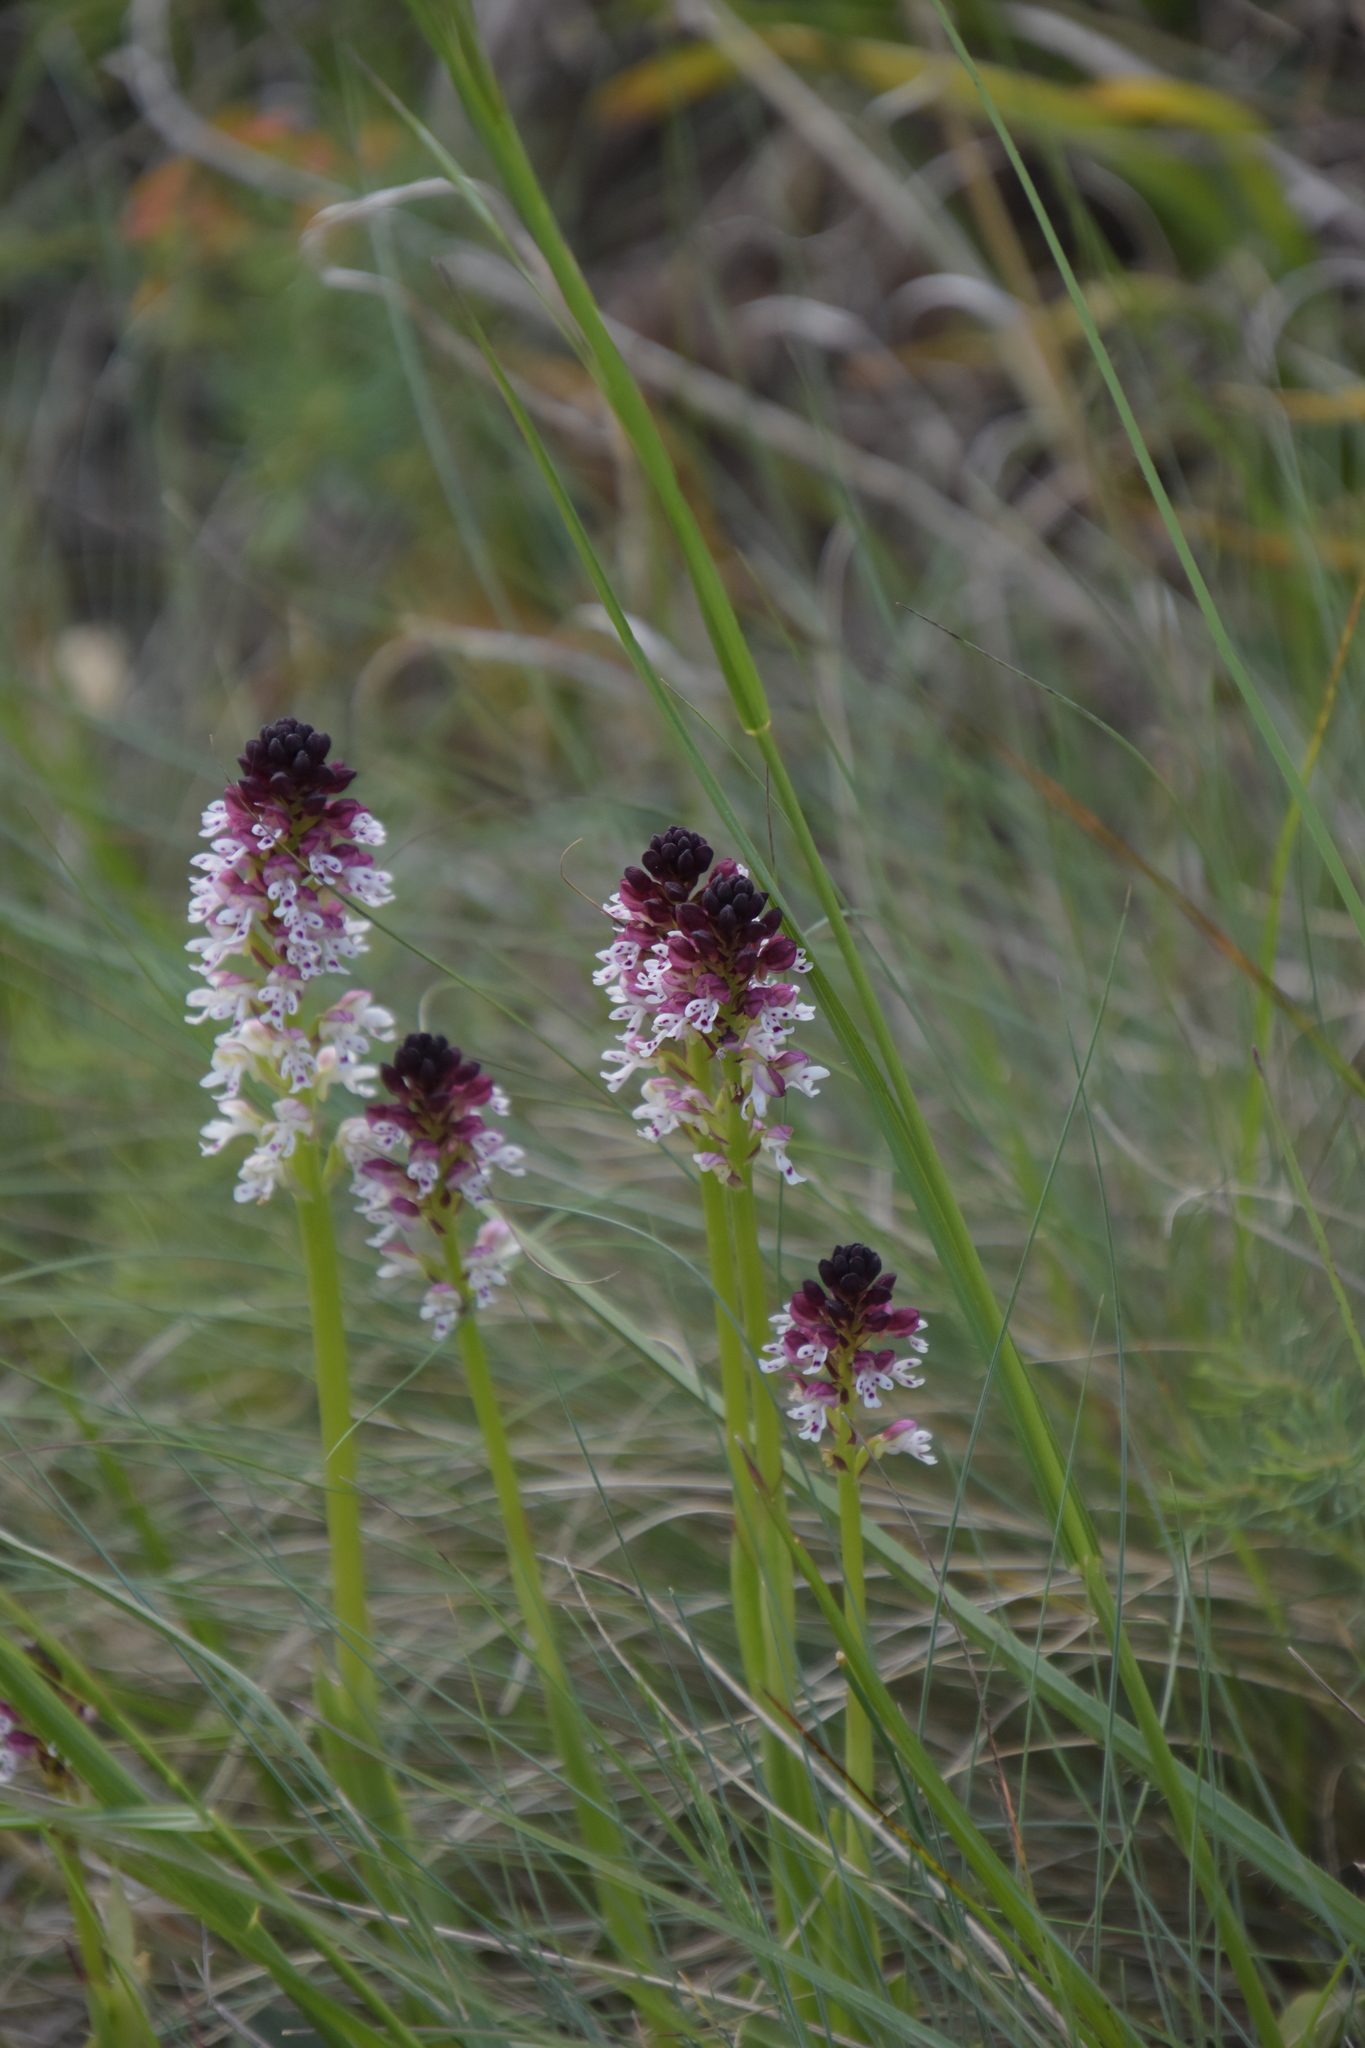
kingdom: Plantae
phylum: Tracheophyta
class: Liliopsida
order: Asparagales
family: Orchidaceae
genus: Neotinea
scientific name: Neotinea ustulata
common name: Burnt orchid
